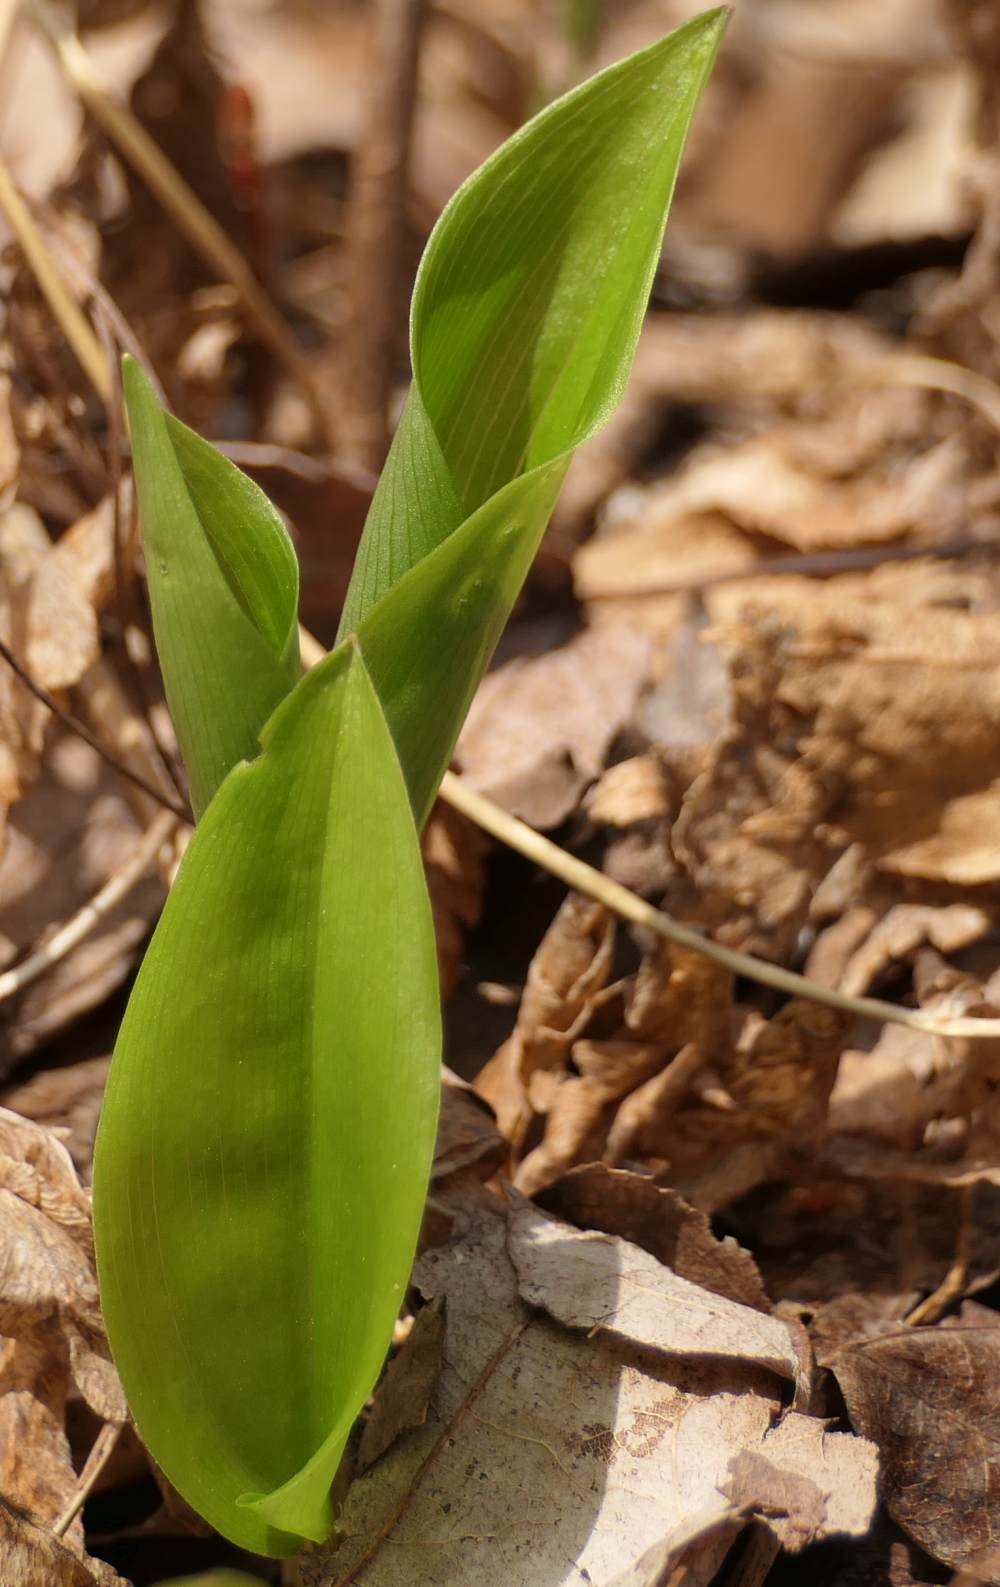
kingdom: Plantae
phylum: Tracheophyta
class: Liliopsida
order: Asparagales
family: Asparagaceae
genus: Maianthemum
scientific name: Maianthemum canadense
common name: False lily-of-the-valley
